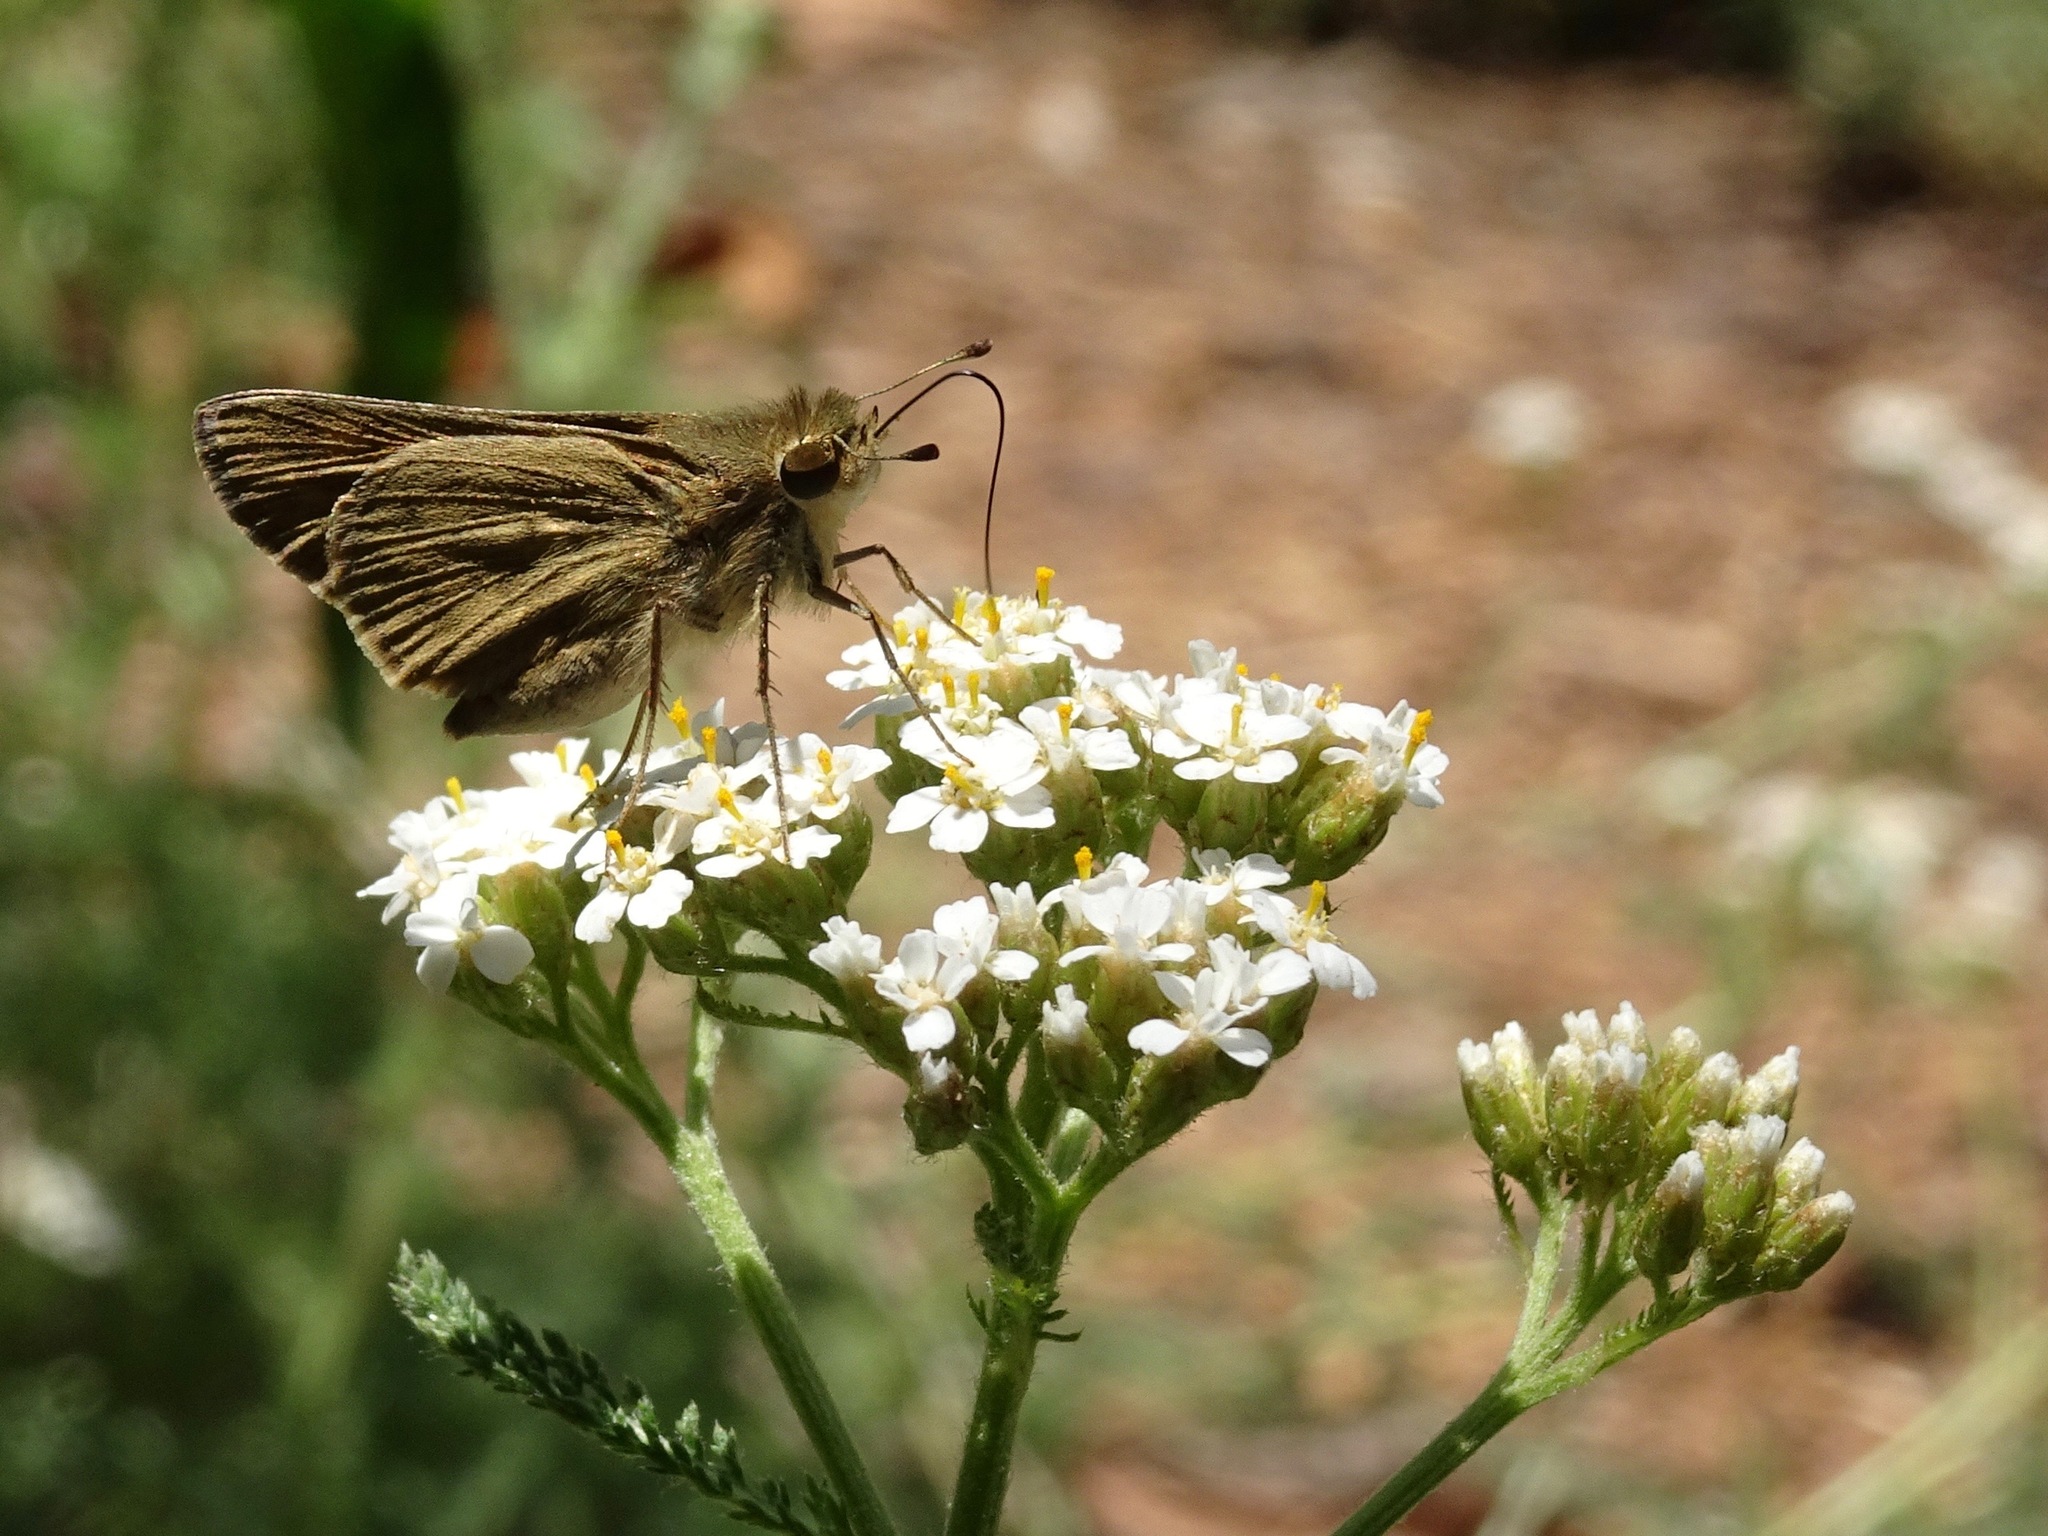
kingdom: Animalia
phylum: Arthropoda
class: Insecta
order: Lepidoptera
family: Hesperiidae
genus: Lerodea
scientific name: Lerodea eufala
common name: Eufala skipper
